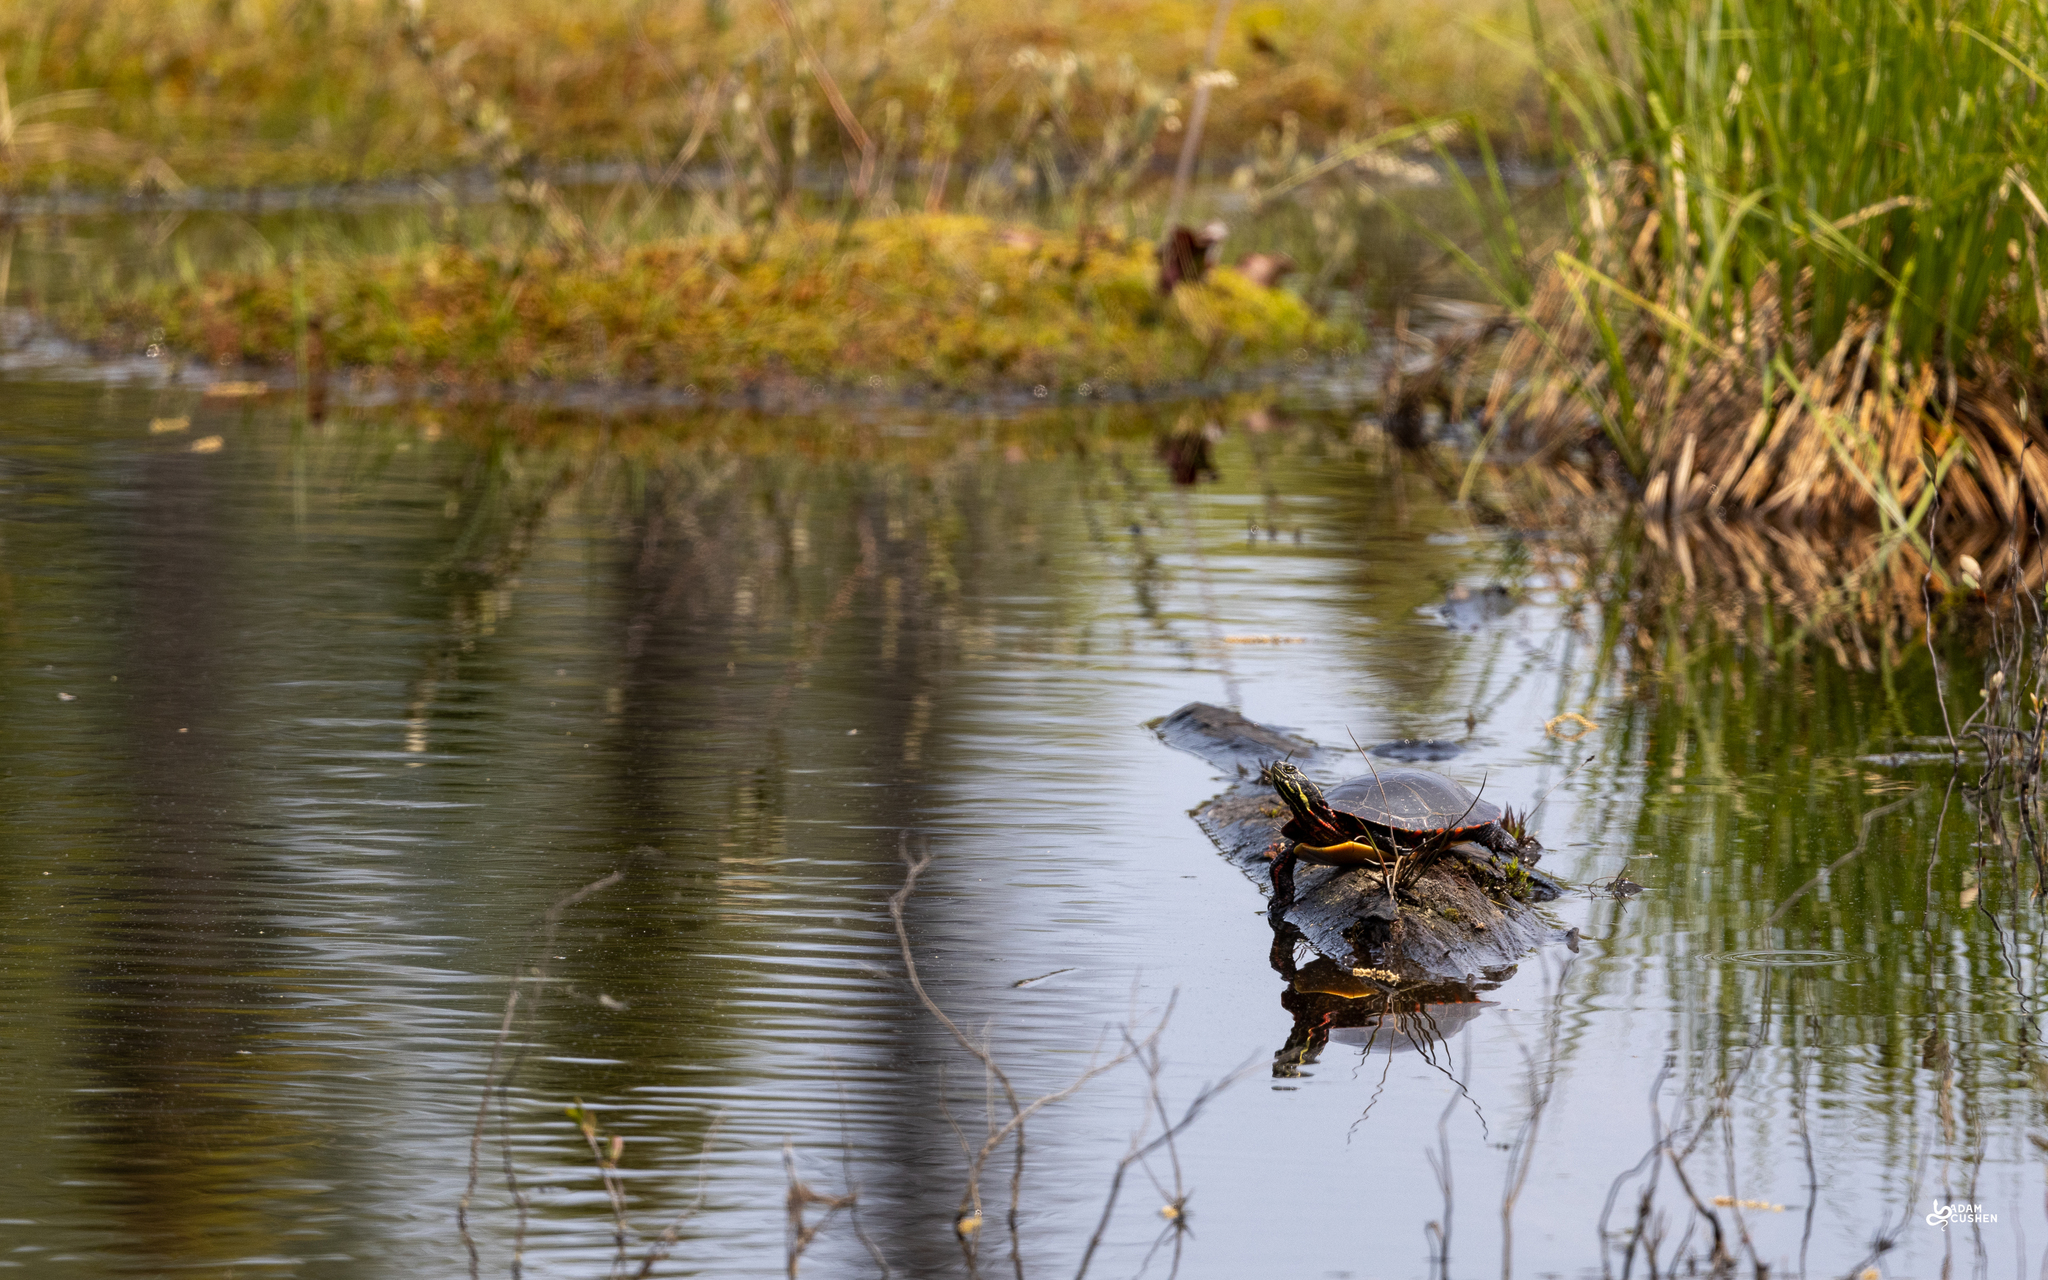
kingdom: Animalia
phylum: Chordata
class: Testudines
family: Emydidae
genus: Chrysemys
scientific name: Chrysemys picta
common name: Painted turtle
